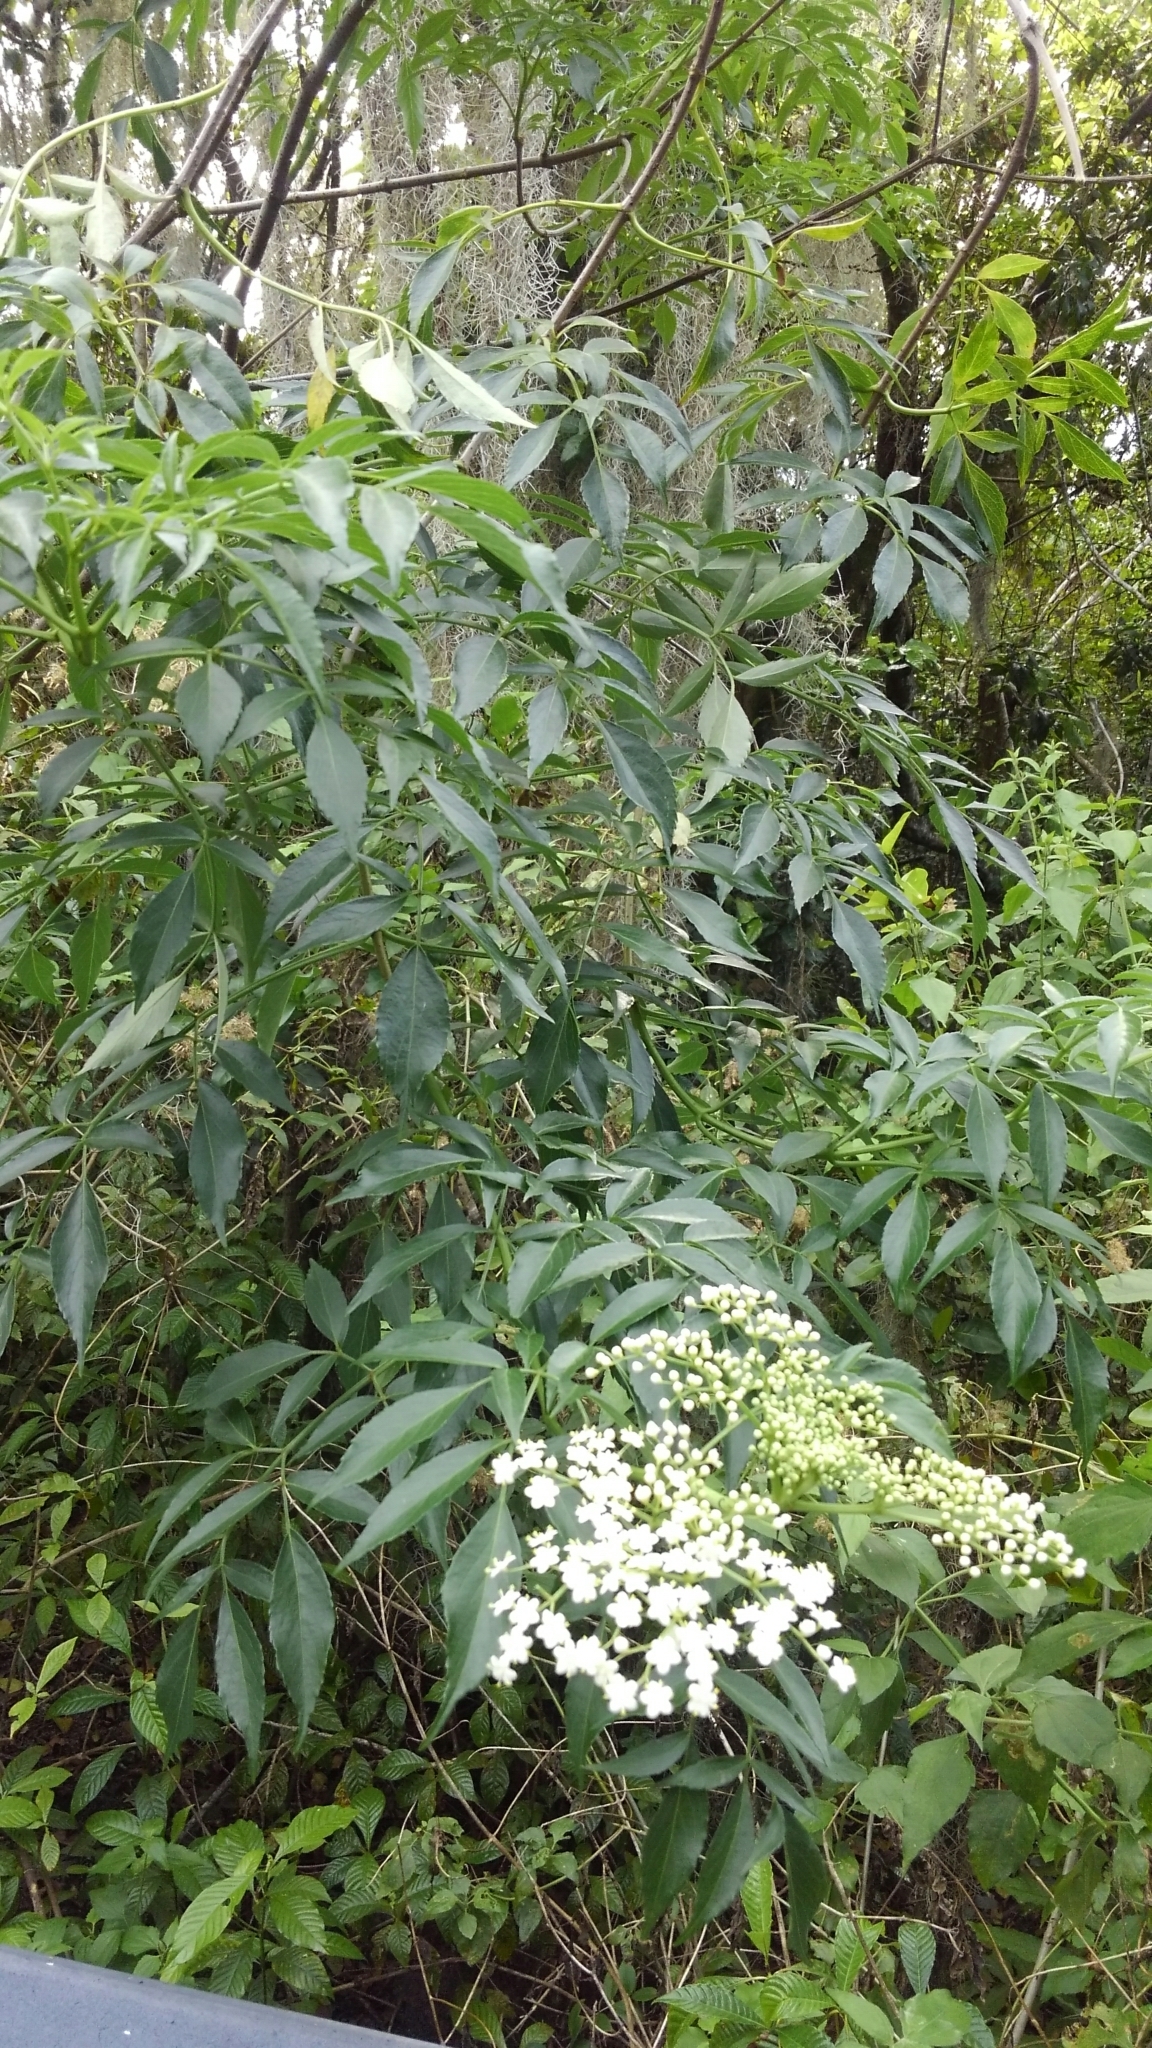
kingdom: Plantae
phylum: Tracheophyta
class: Magnoliopsida
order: Dipsacales
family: Viburnaceae
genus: Sambucus
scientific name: Sambucus canadensis
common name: American elder
